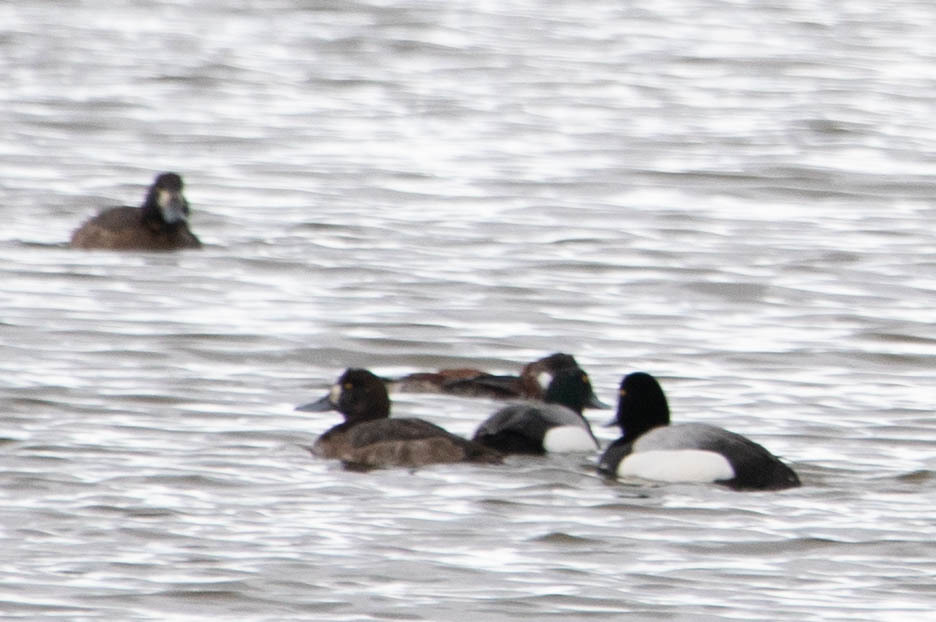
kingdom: Animalia
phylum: Chordata
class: Aves
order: Anseriformes
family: Anatidae
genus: Aythya
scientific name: Aythya marila
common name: Greater scaup
